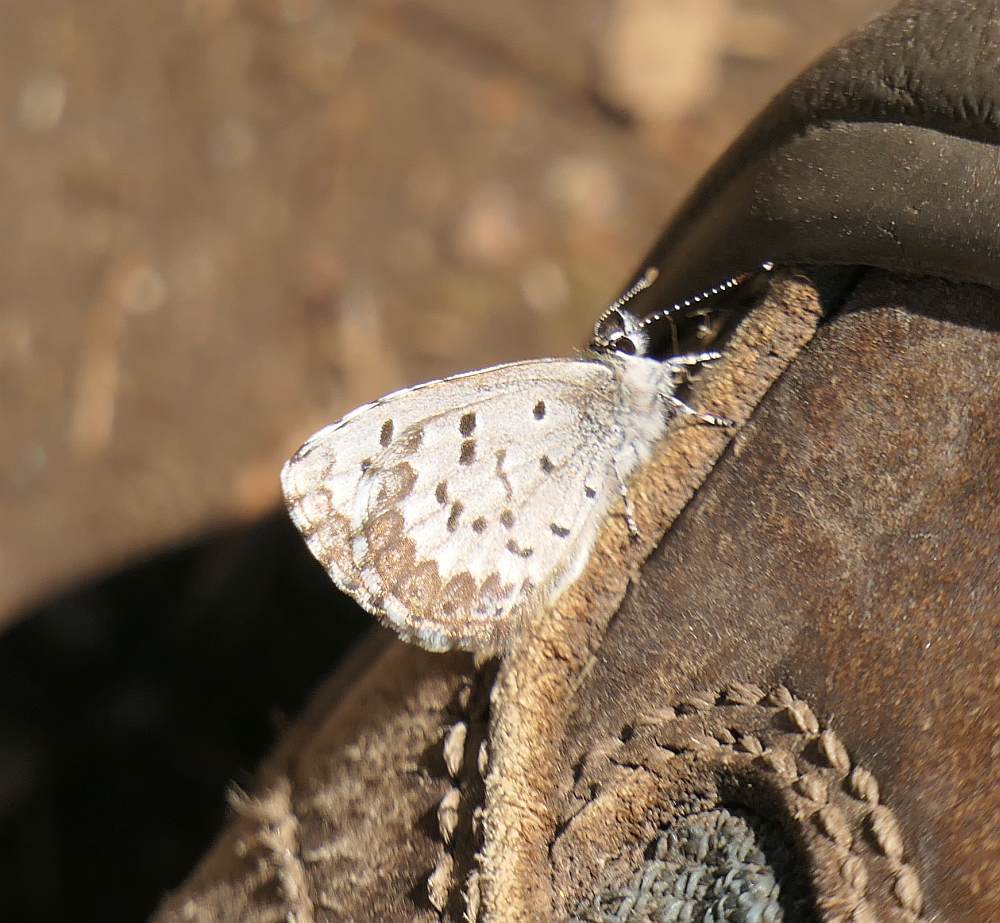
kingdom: Animalia
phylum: Arthropoda
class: Insecta
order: Lepidoptera
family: Lycaenidae
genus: Celastrina
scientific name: Celastrina lucia
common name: Lucia azure
